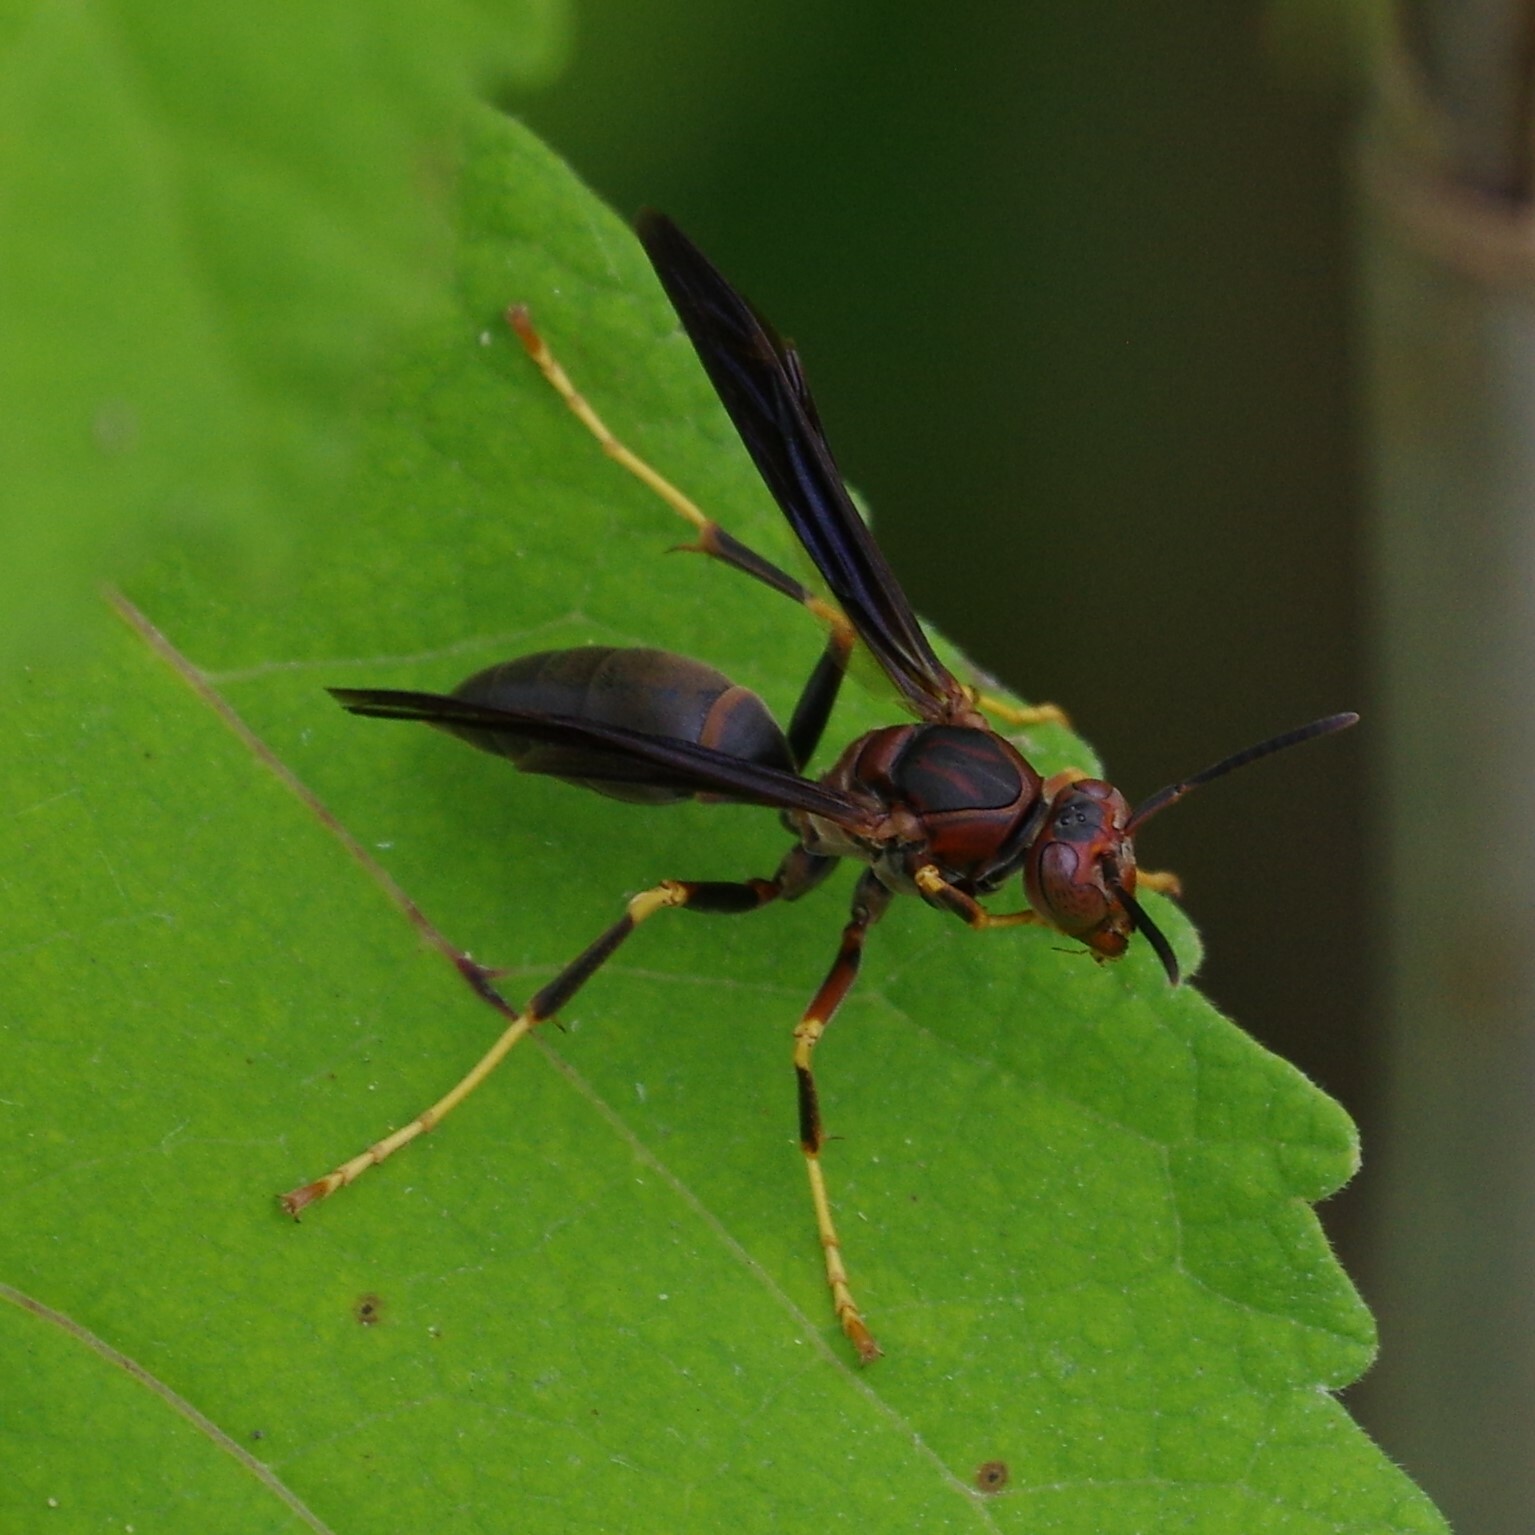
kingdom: Animalia
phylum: Arthropoda
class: Insecta
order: Hymenoptera
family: Eumenidae
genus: Polistes
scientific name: Polistes metricus
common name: Metric paper wasp
